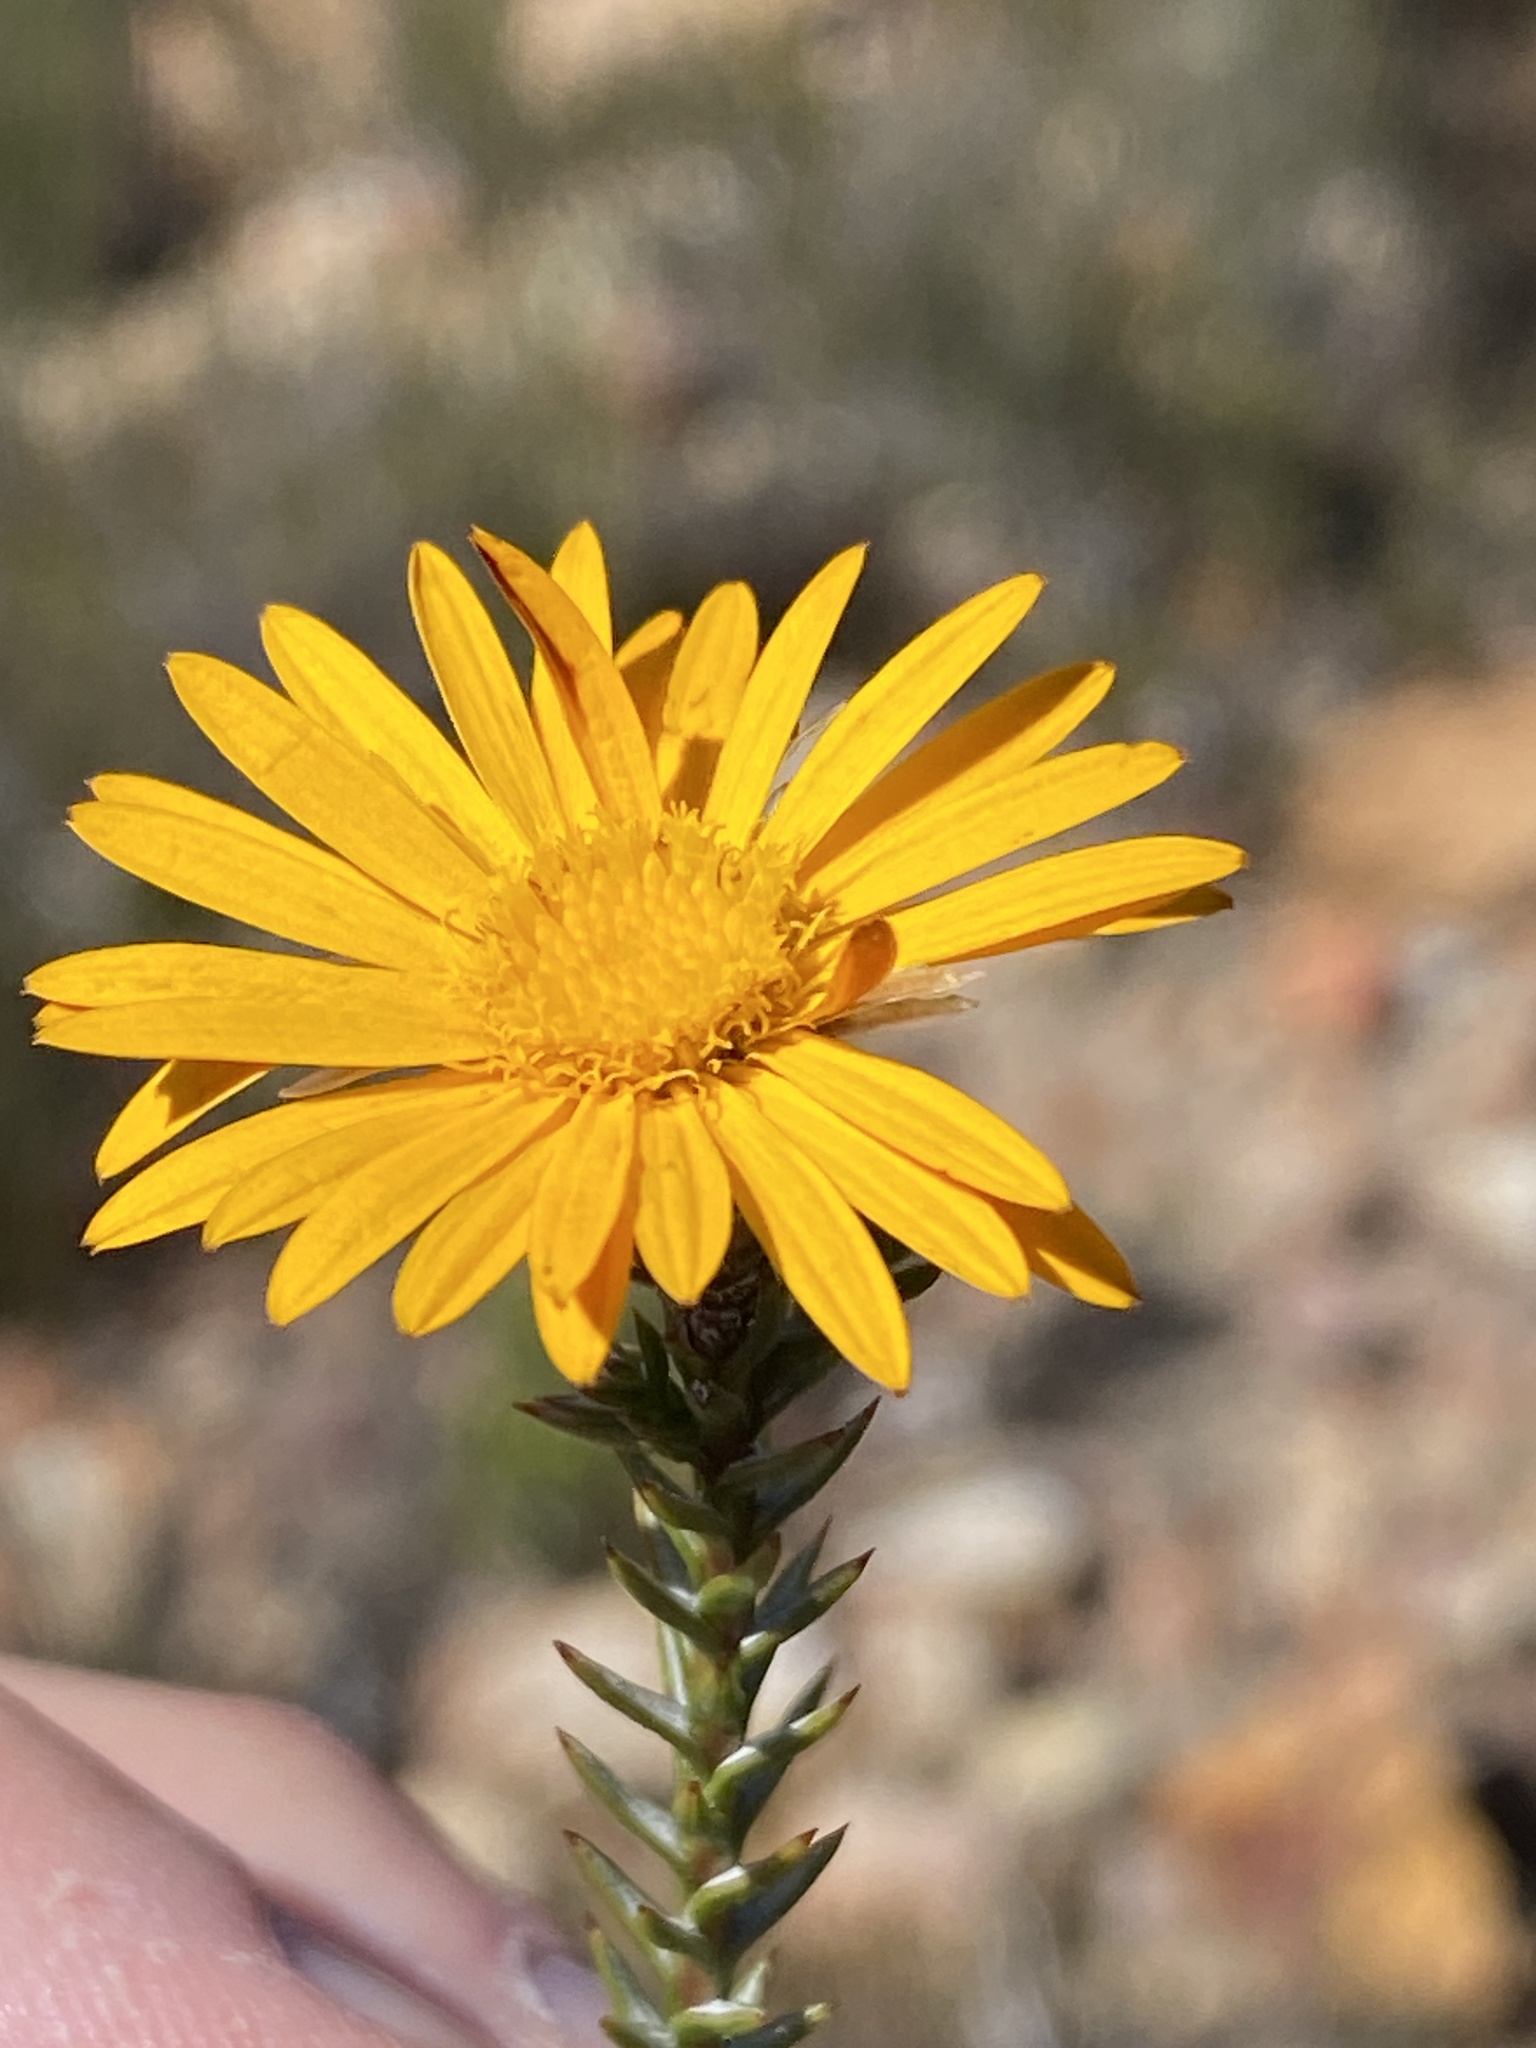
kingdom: Plantae
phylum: Tracheophyta
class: Magnoliopsida
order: Asterales
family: Asteraceae
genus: Oedera
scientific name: Oedera decussata
